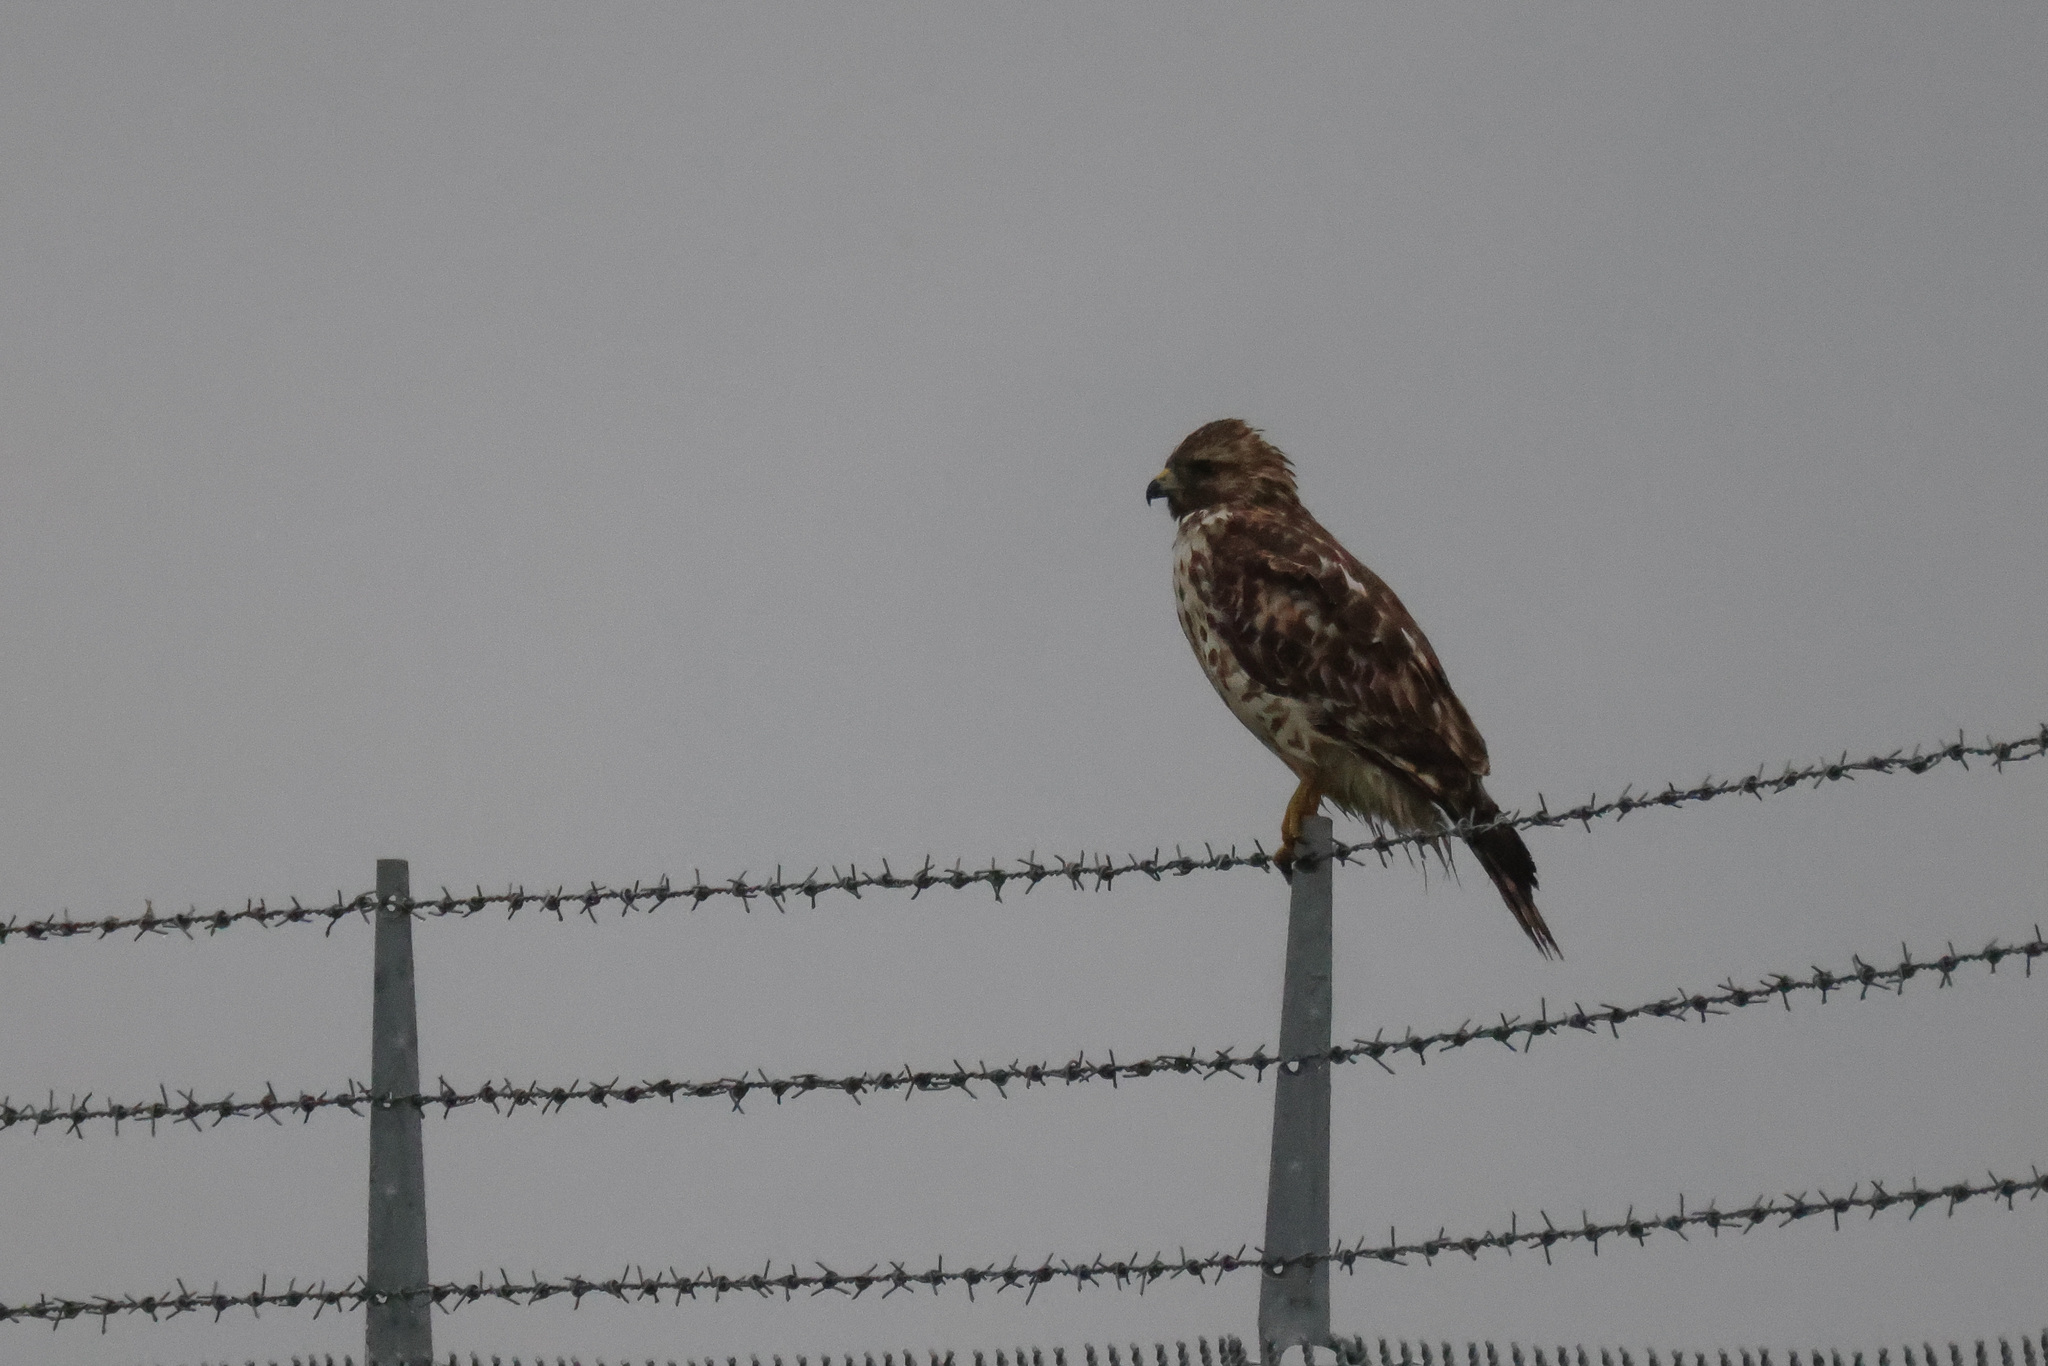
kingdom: Animalia
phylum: Chordata
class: Aves
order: Accipitriformes
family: Accipitridae
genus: Buteo
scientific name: Buteo lineatus
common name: Red-shouldered hawk
